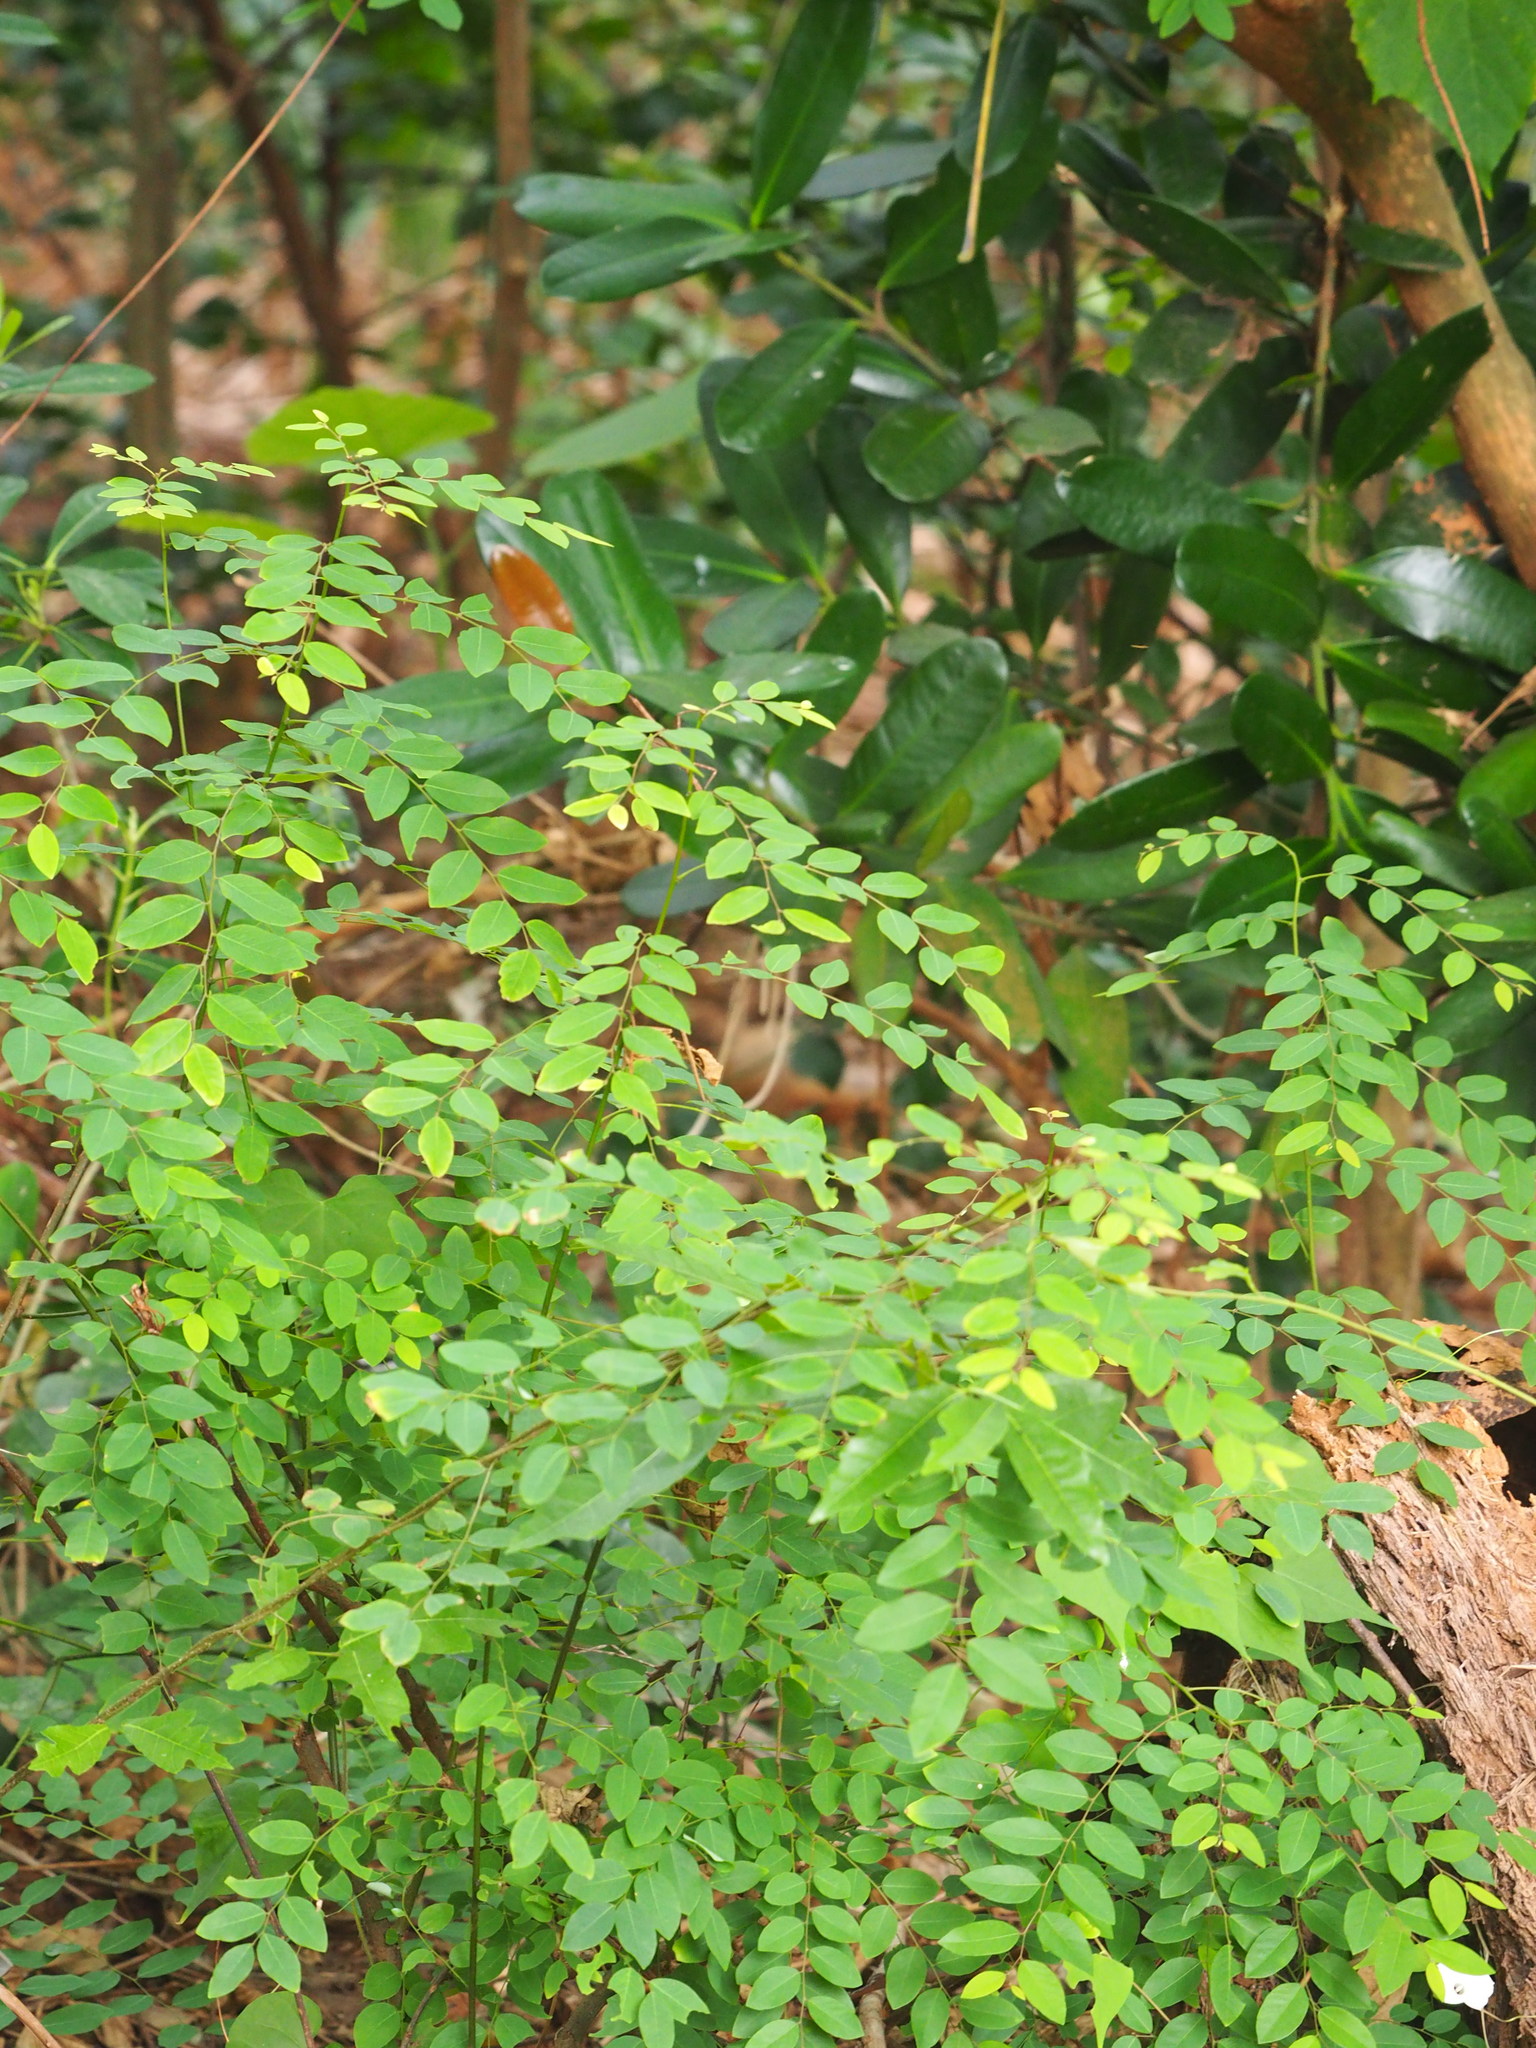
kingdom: Plantae
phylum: Tracheophyta
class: Magnoliopsida
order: Malpighiales
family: Phyllanthaceae
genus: Phyllanthus
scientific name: Phyllanthus reticulatus
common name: Potato bush
